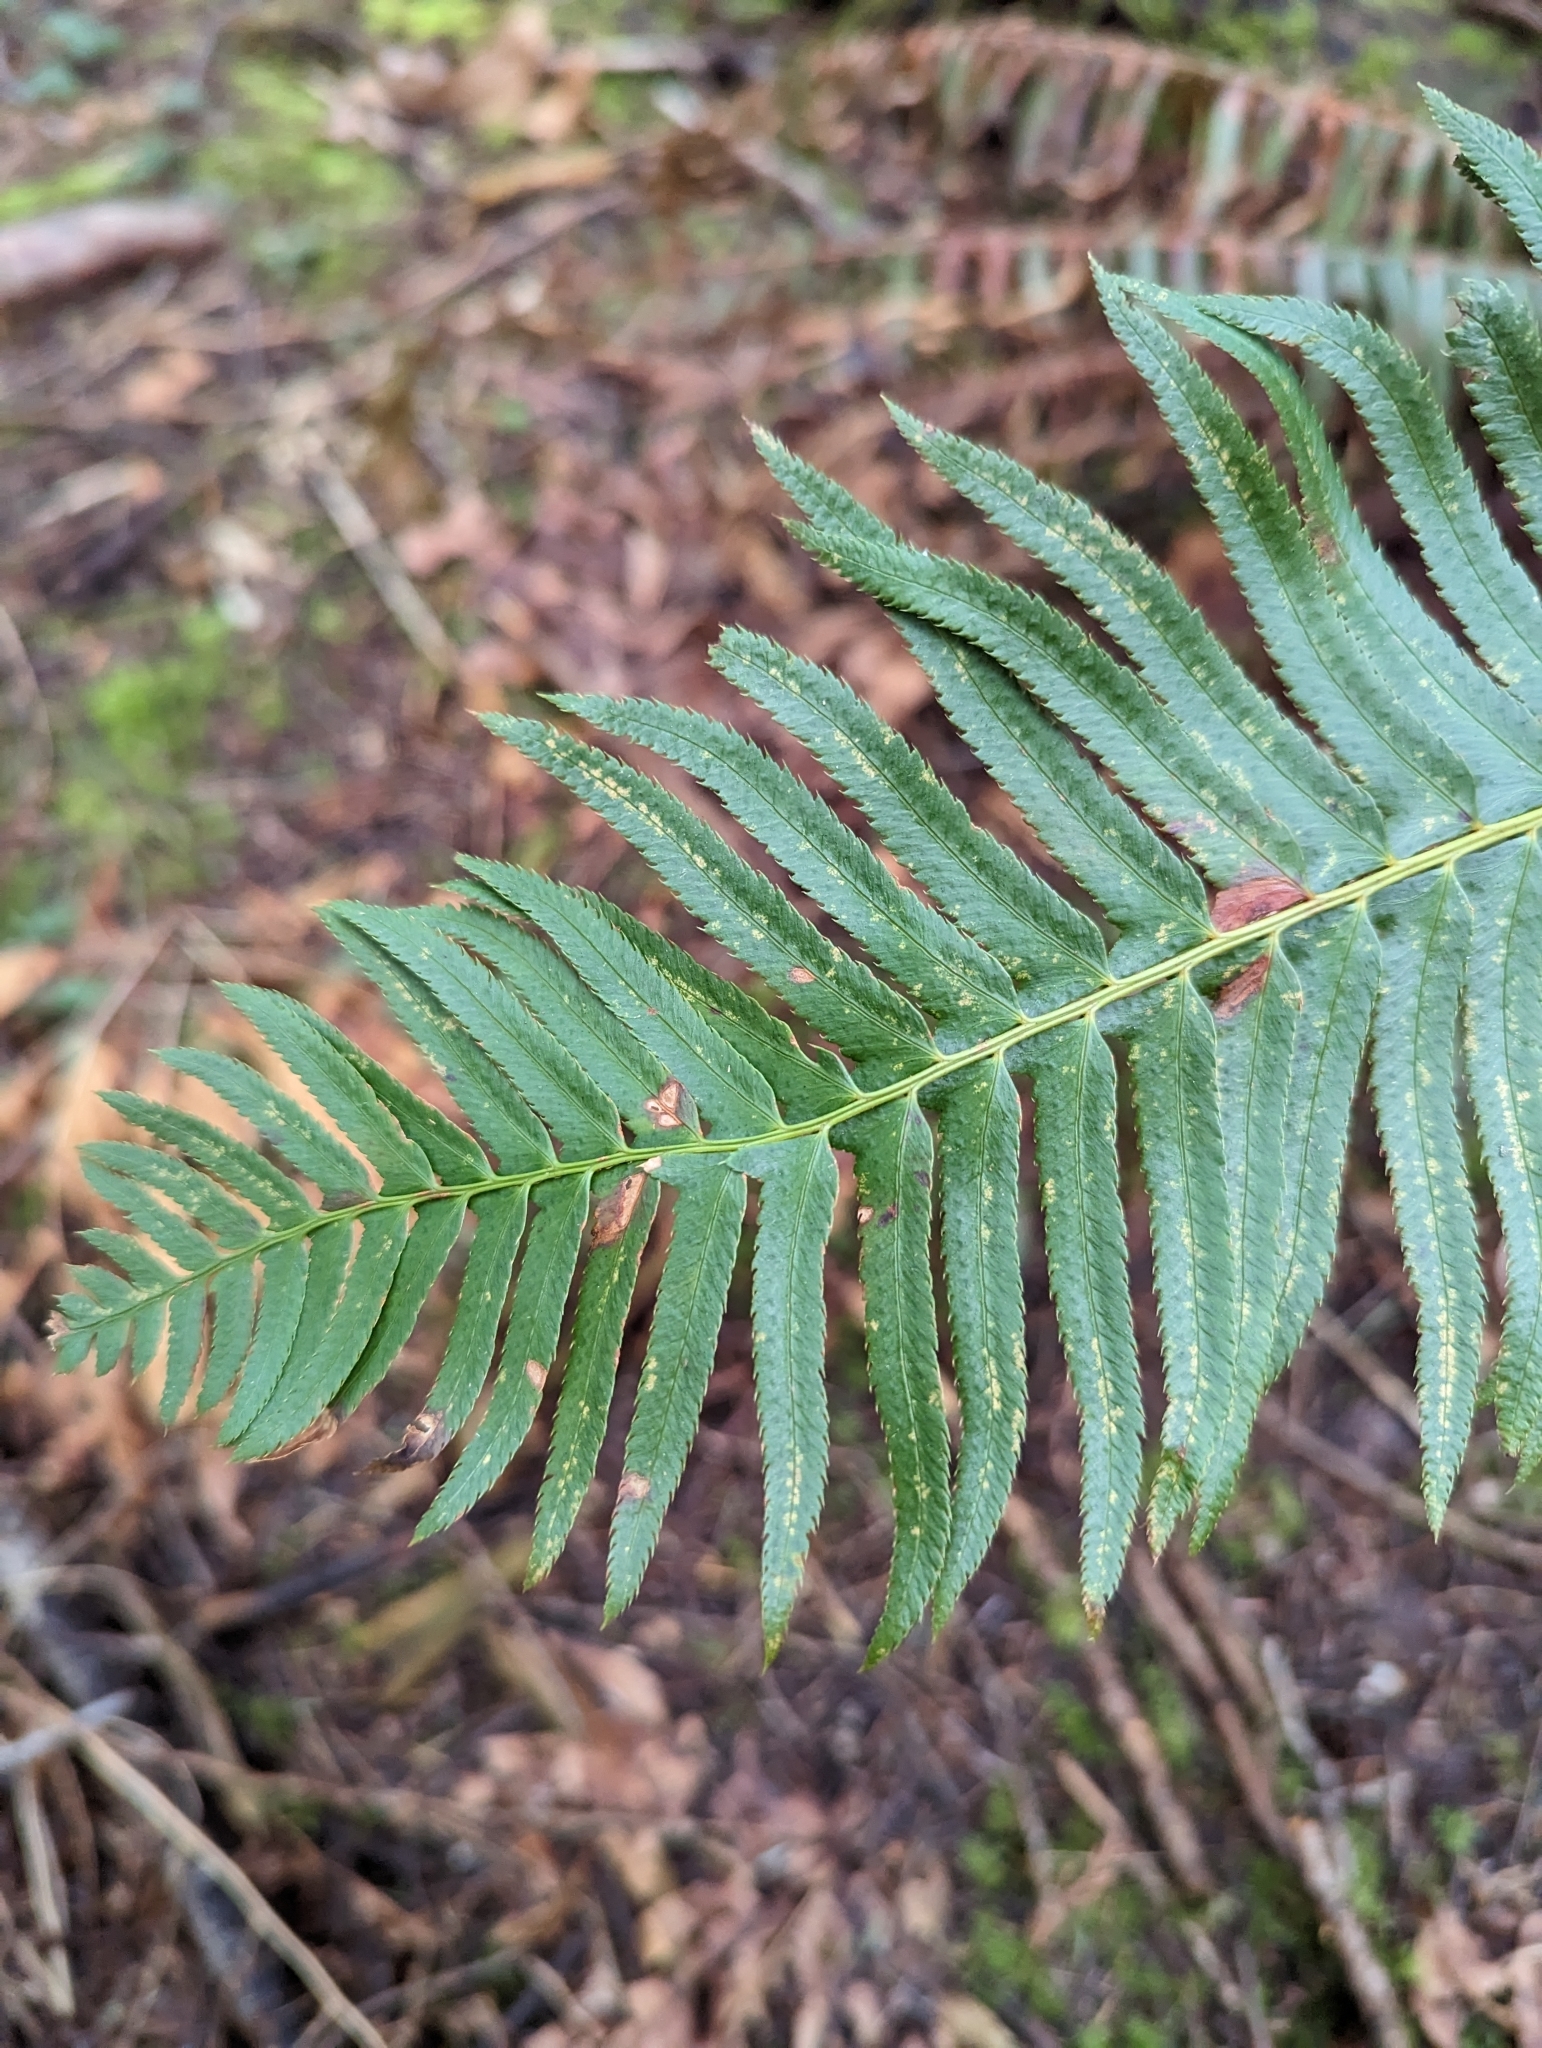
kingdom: Plantae
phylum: Tracheophyta
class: Polypodiopsida
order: Polypodiales
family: Dryopteridaceae
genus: Polystichum
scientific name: Polystichum munitum
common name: Western sword-fern
